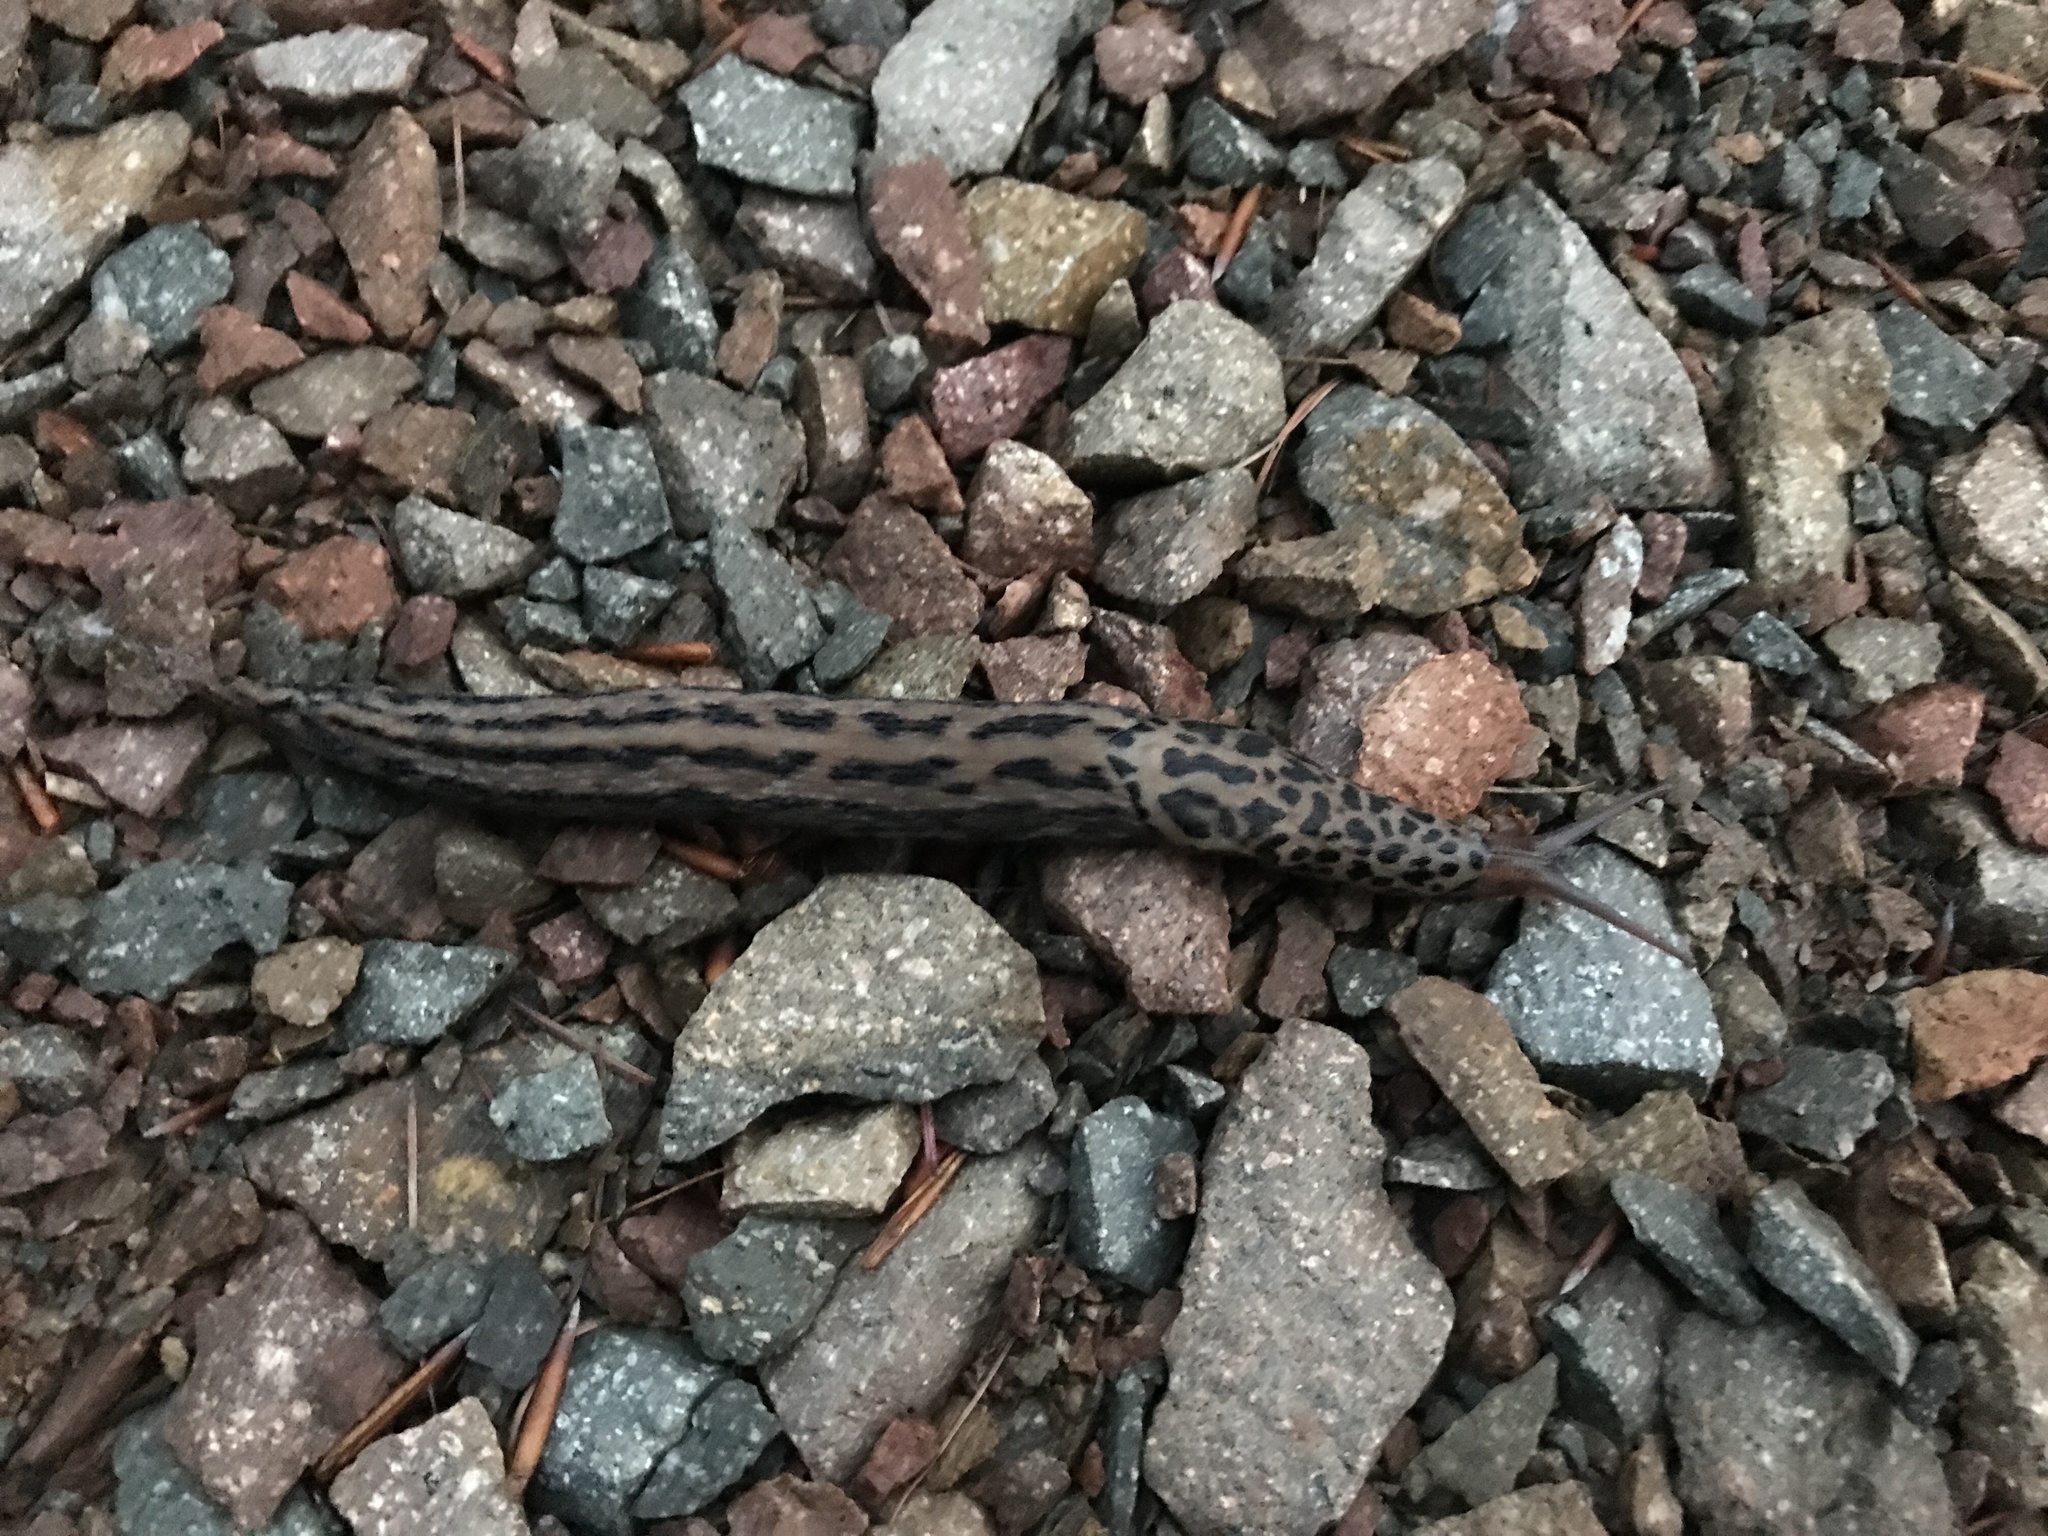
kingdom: Animalia
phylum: Mollusca
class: Gastropoda
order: Stylommatophora
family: Limacidae
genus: Limax
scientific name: Limax maximus
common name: Great grey slug
